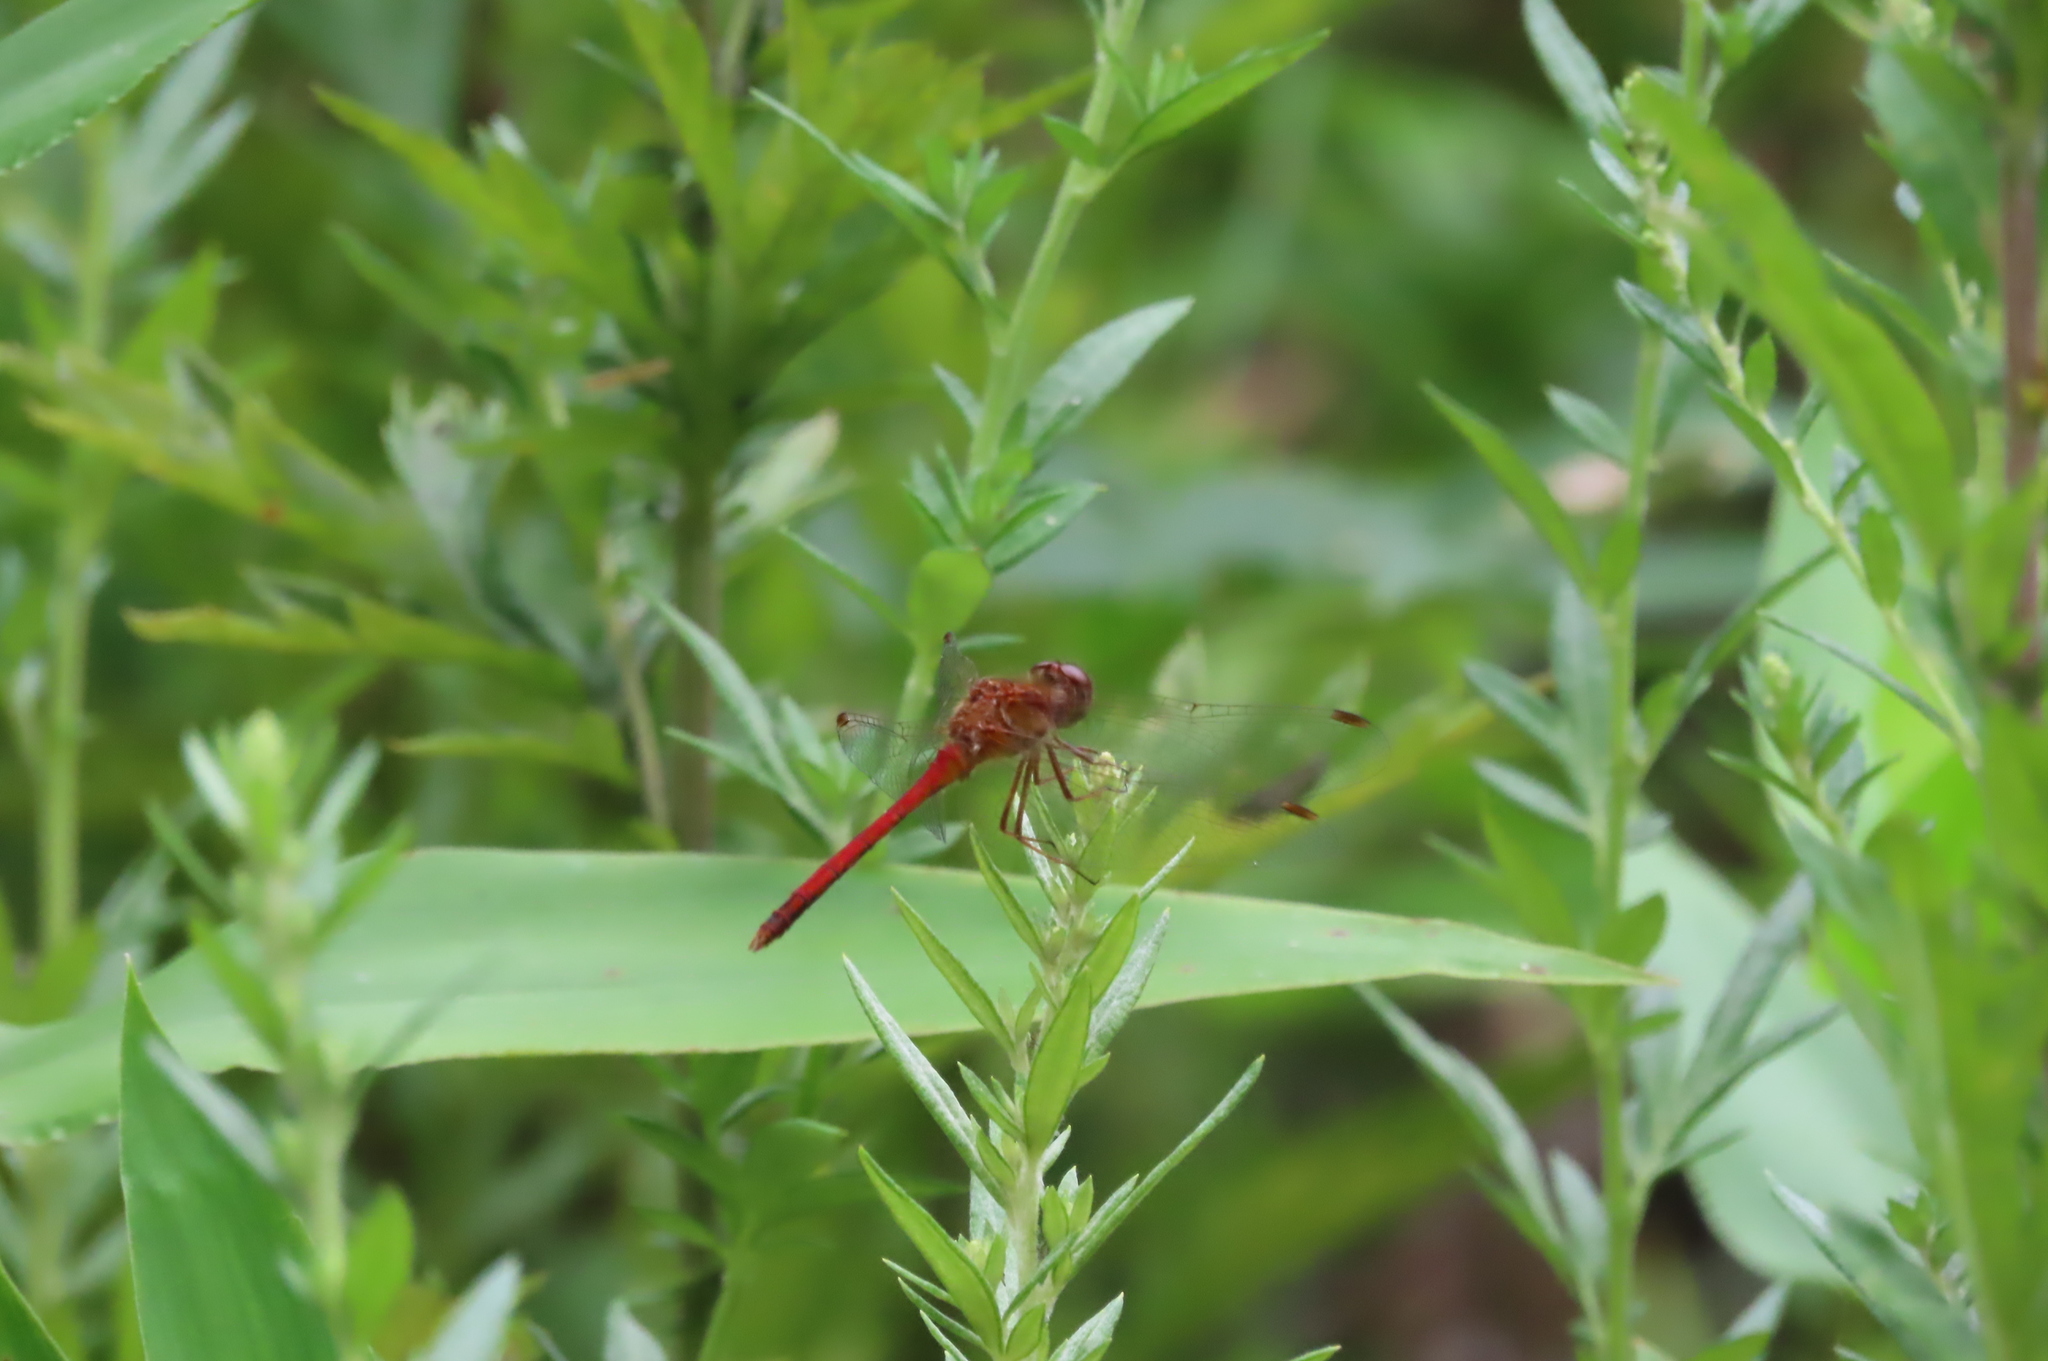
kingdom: Animalia
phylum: Arthropoda
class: Insecta
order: Odonata
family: Libellulidae
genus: Sympetrum
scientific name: Sympetrum vicinum
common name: Autumn meadowhawk
